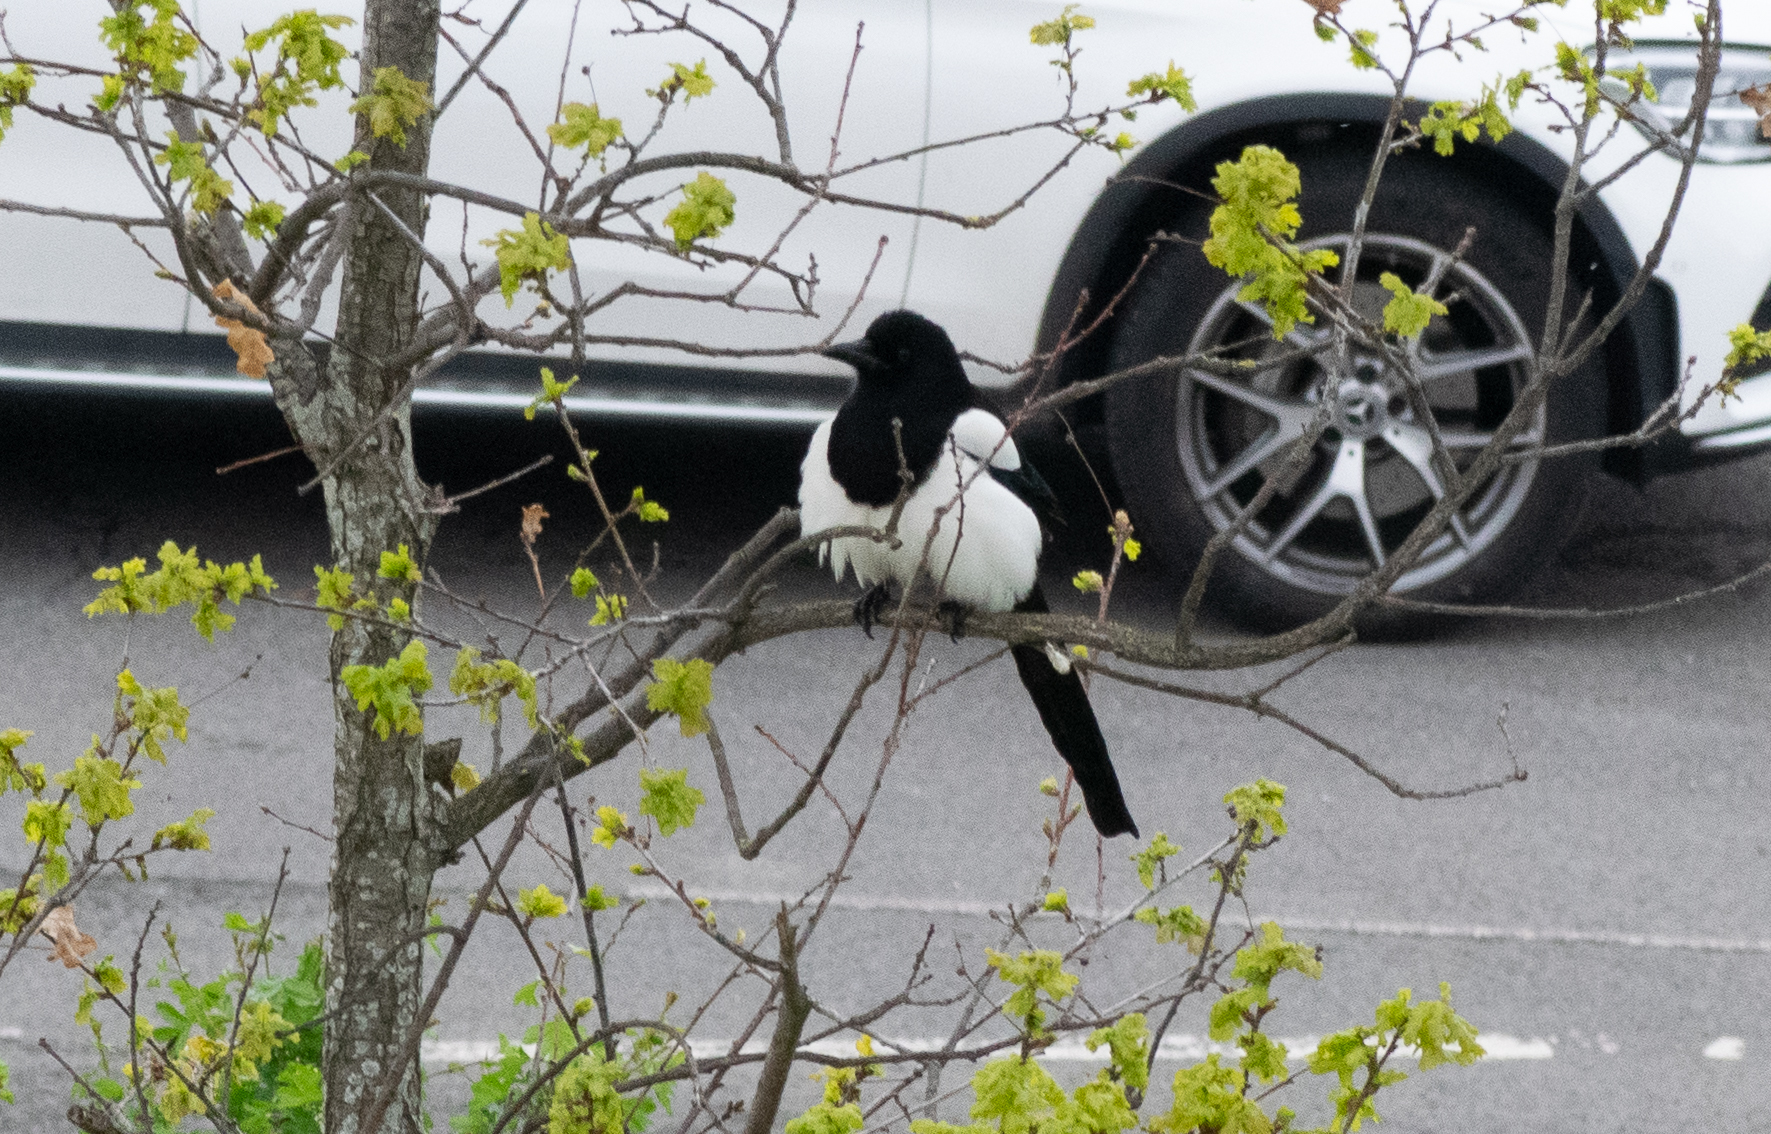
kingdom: Animalia
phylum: Chordata
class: Aves
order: Passeriformes
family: Corvidae
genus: Pica
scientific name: Pica pica
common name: Eurasian magpie
